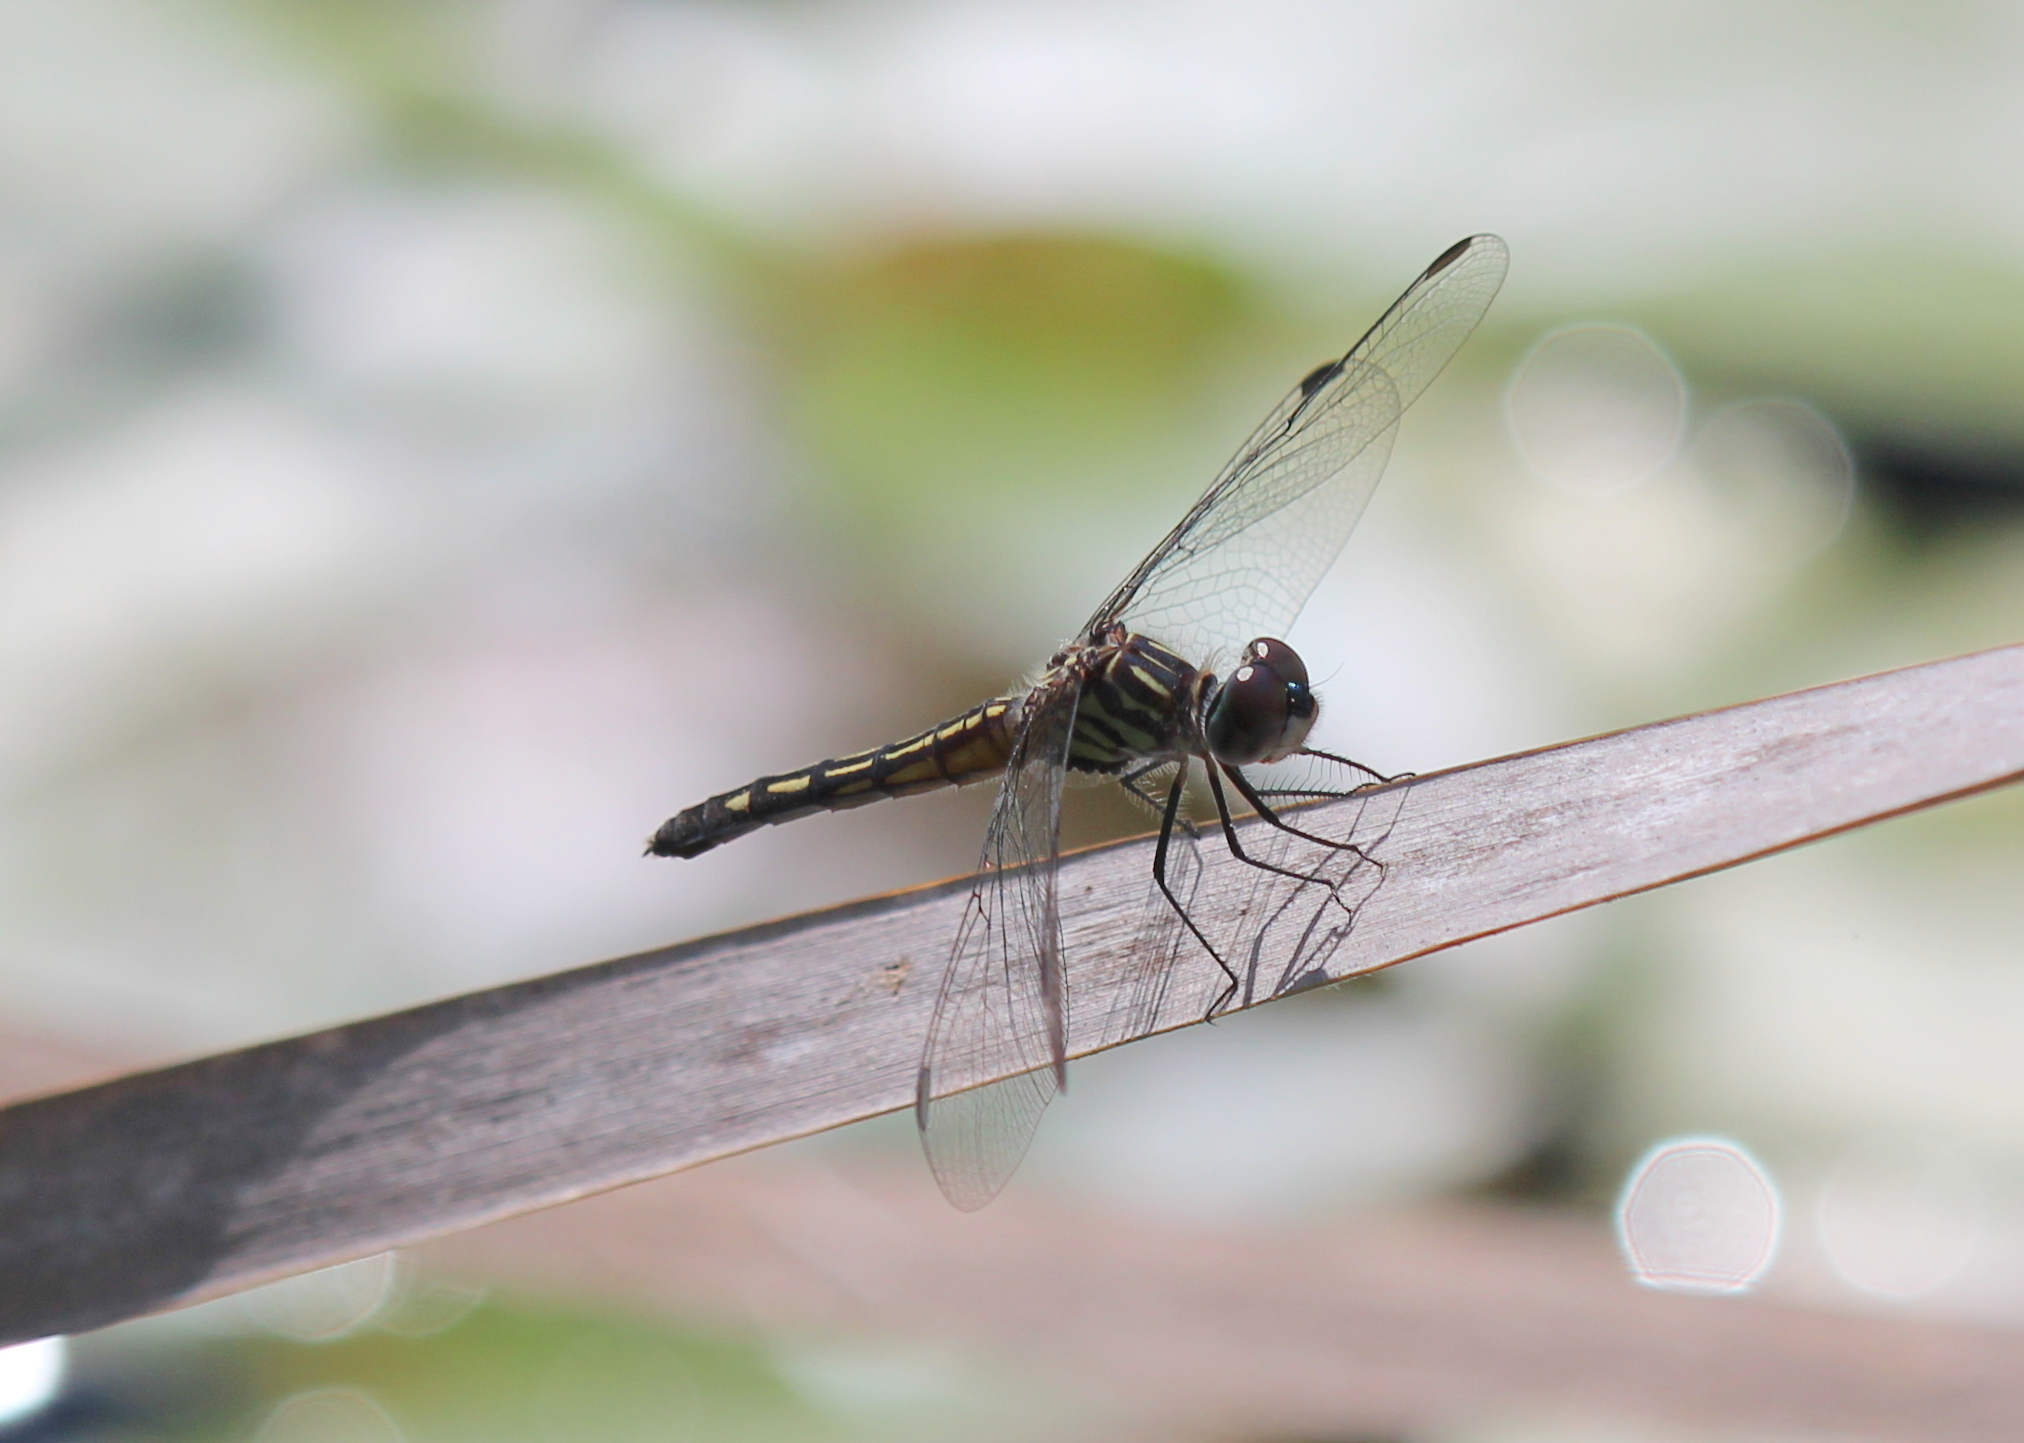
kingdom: Animalia
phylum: Arthropoda
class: Insecta
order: Odonata
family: Libellulidae
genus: Pachydiplax
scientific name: Pachydiplax longipennis
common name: Blue dasher
